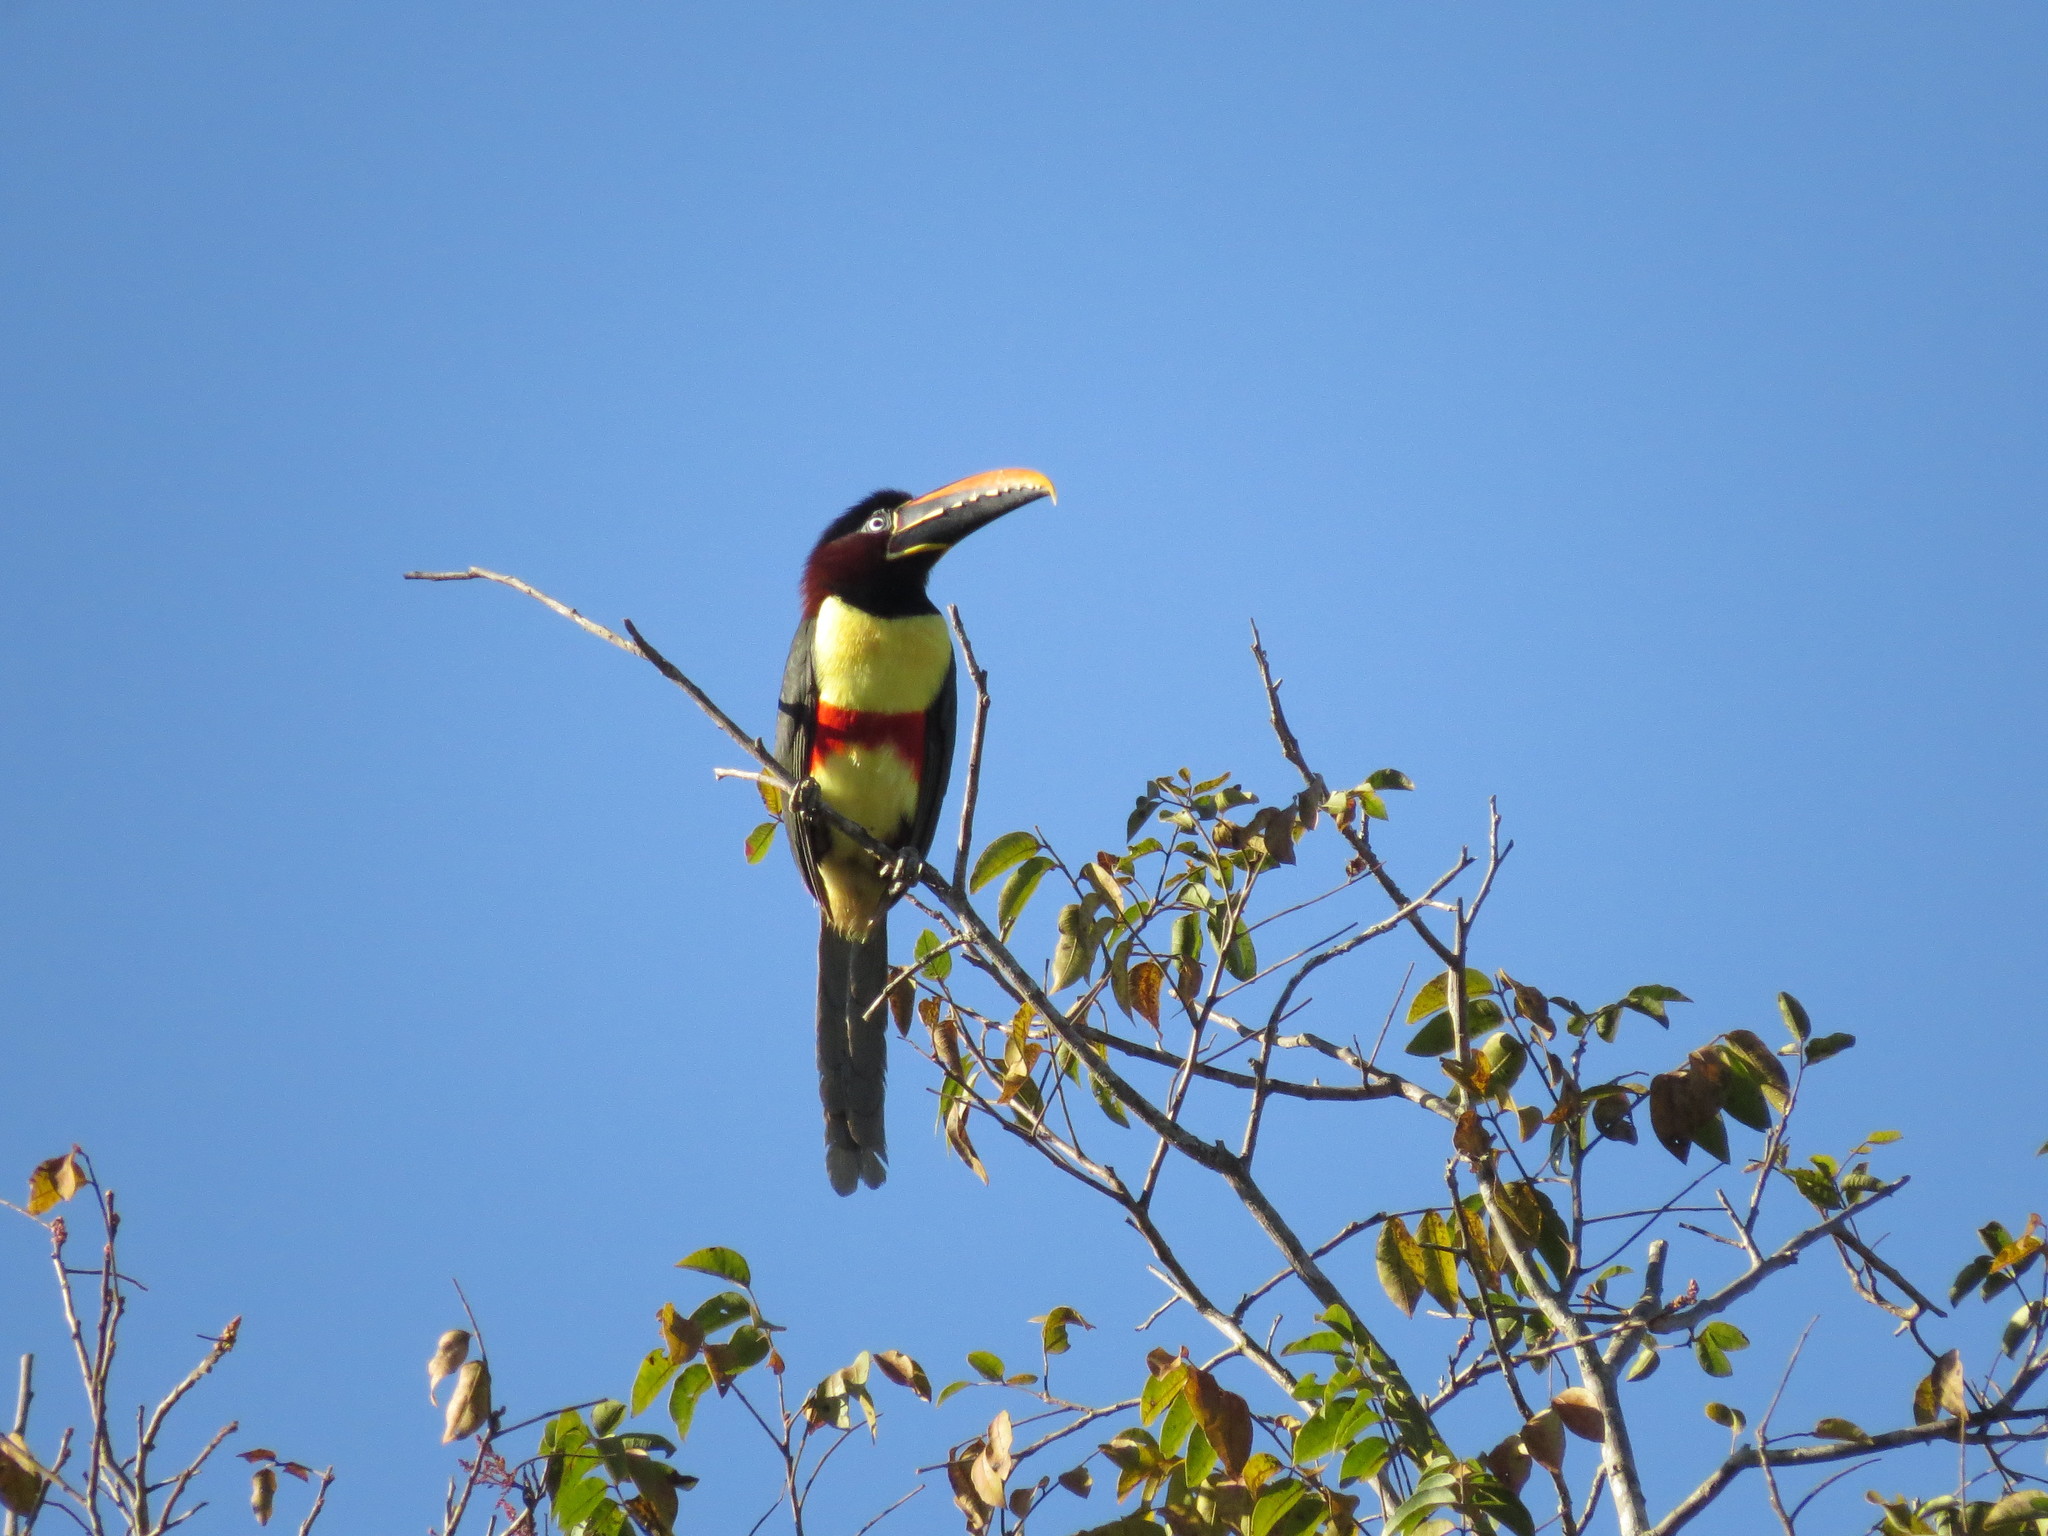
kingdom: Animalia
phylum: Chordata
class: Aves
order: Piciformes
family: Ramphastidae
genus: Pteroglossus
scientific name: Pteroglossus castanotis
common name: Chestnut-eared aracari
